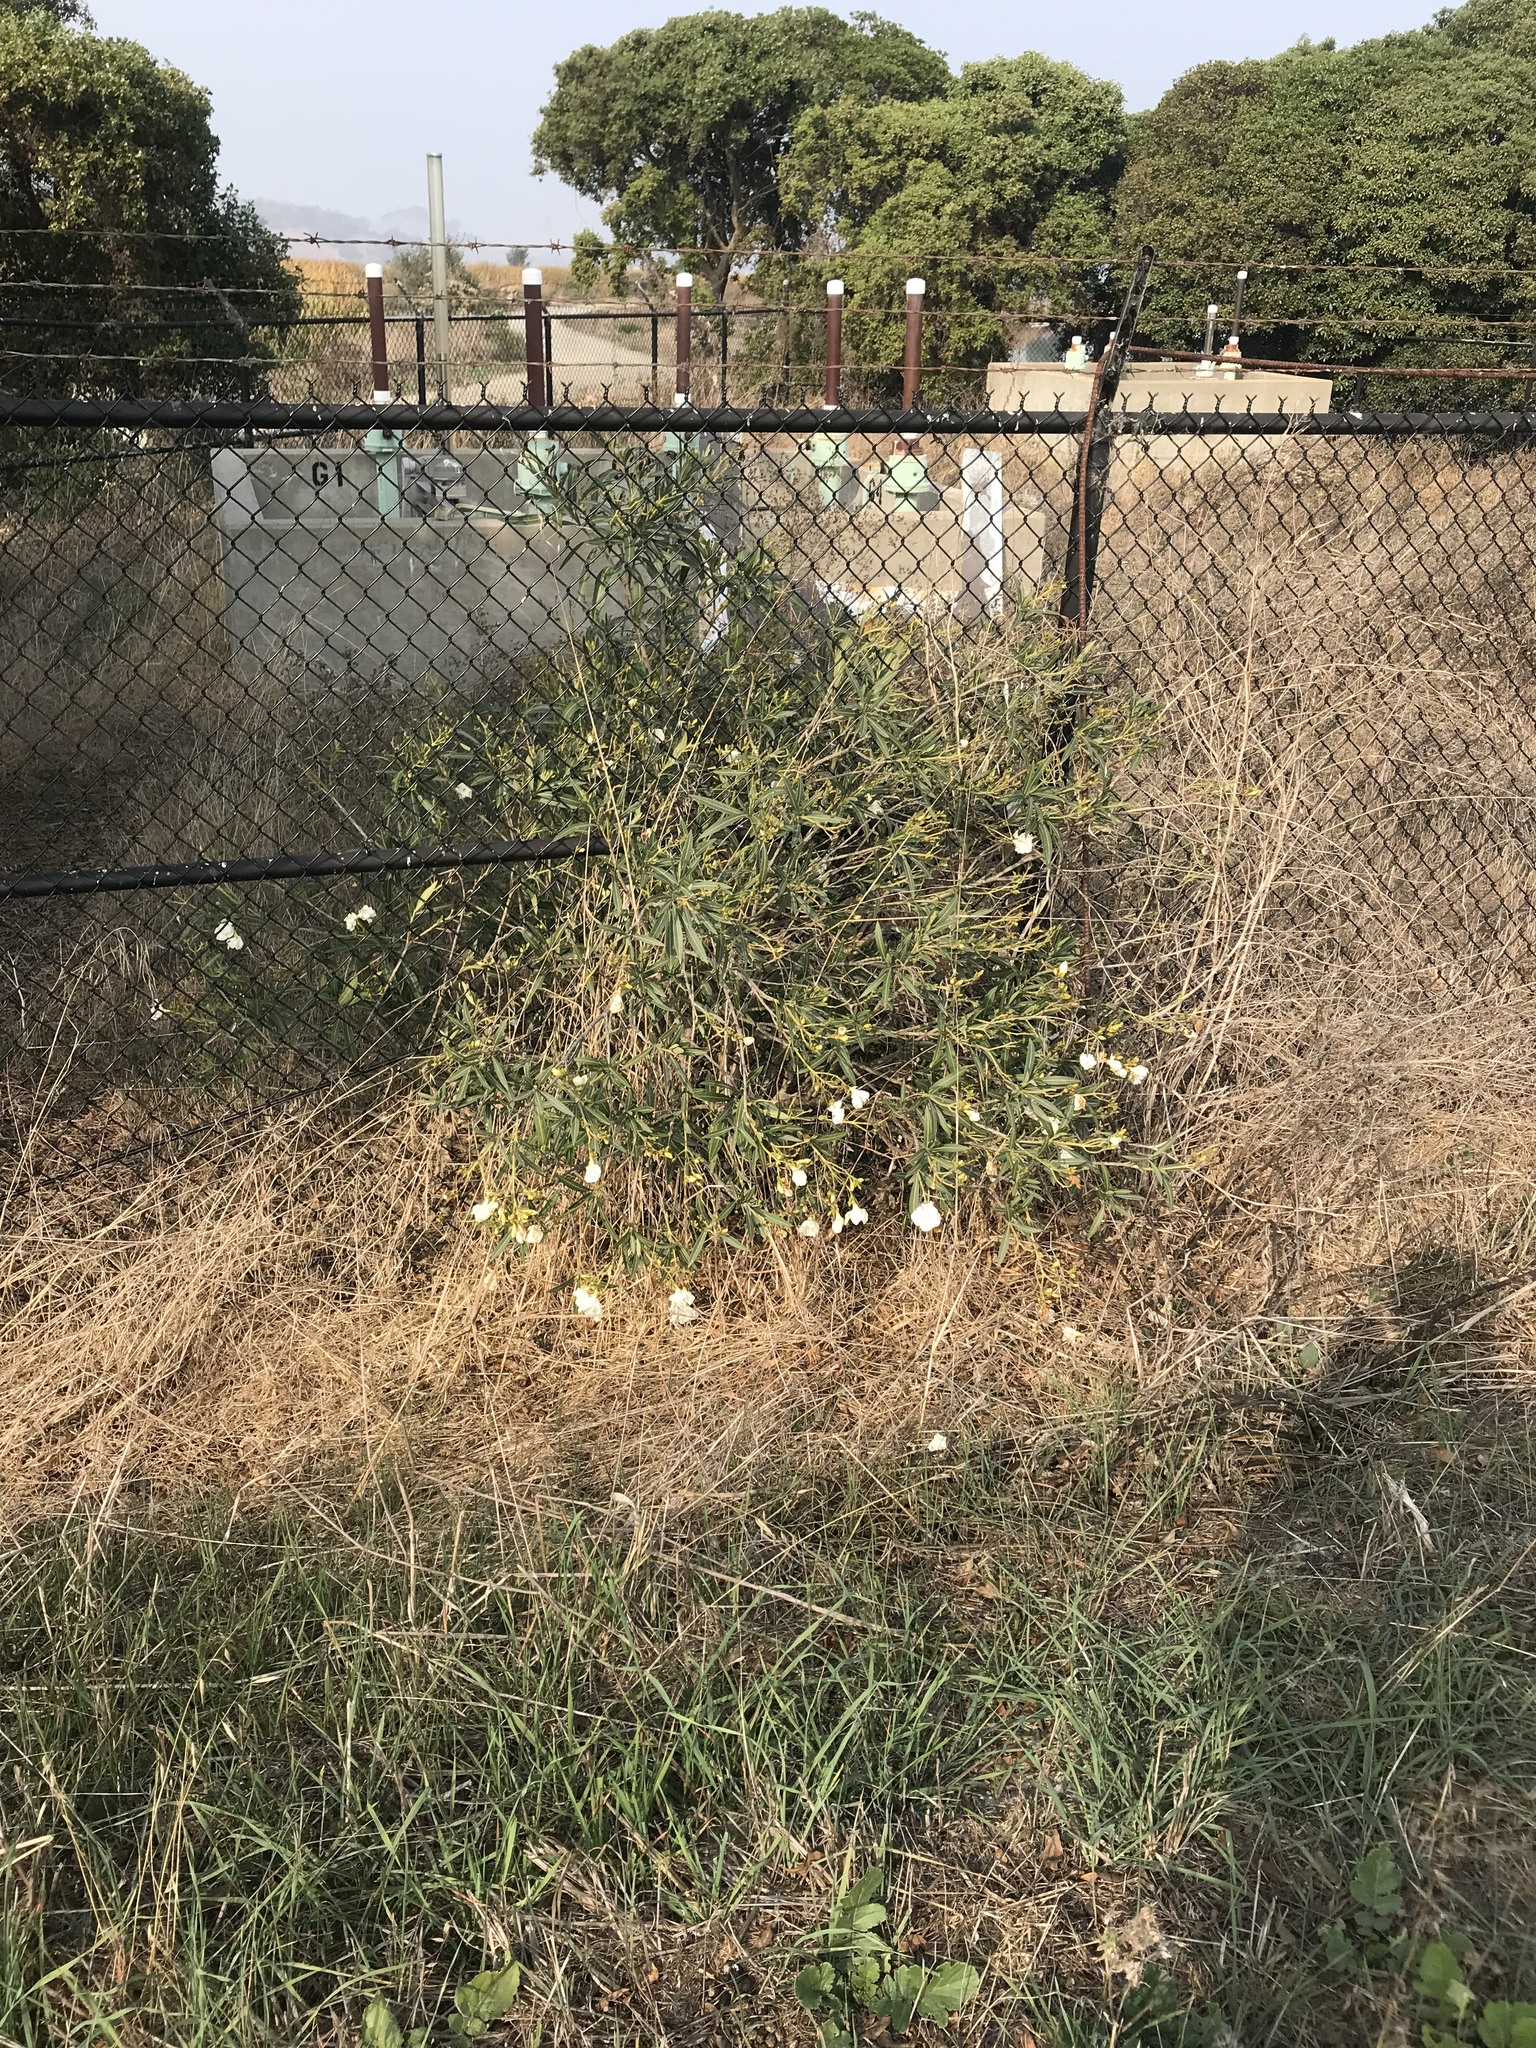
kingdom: Plantae
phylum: Tracheophyta
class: Magnoliopsida
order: Gentianales
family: Apocynaceae
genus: Nerium
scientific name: Nerium oleander
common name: Oleander
